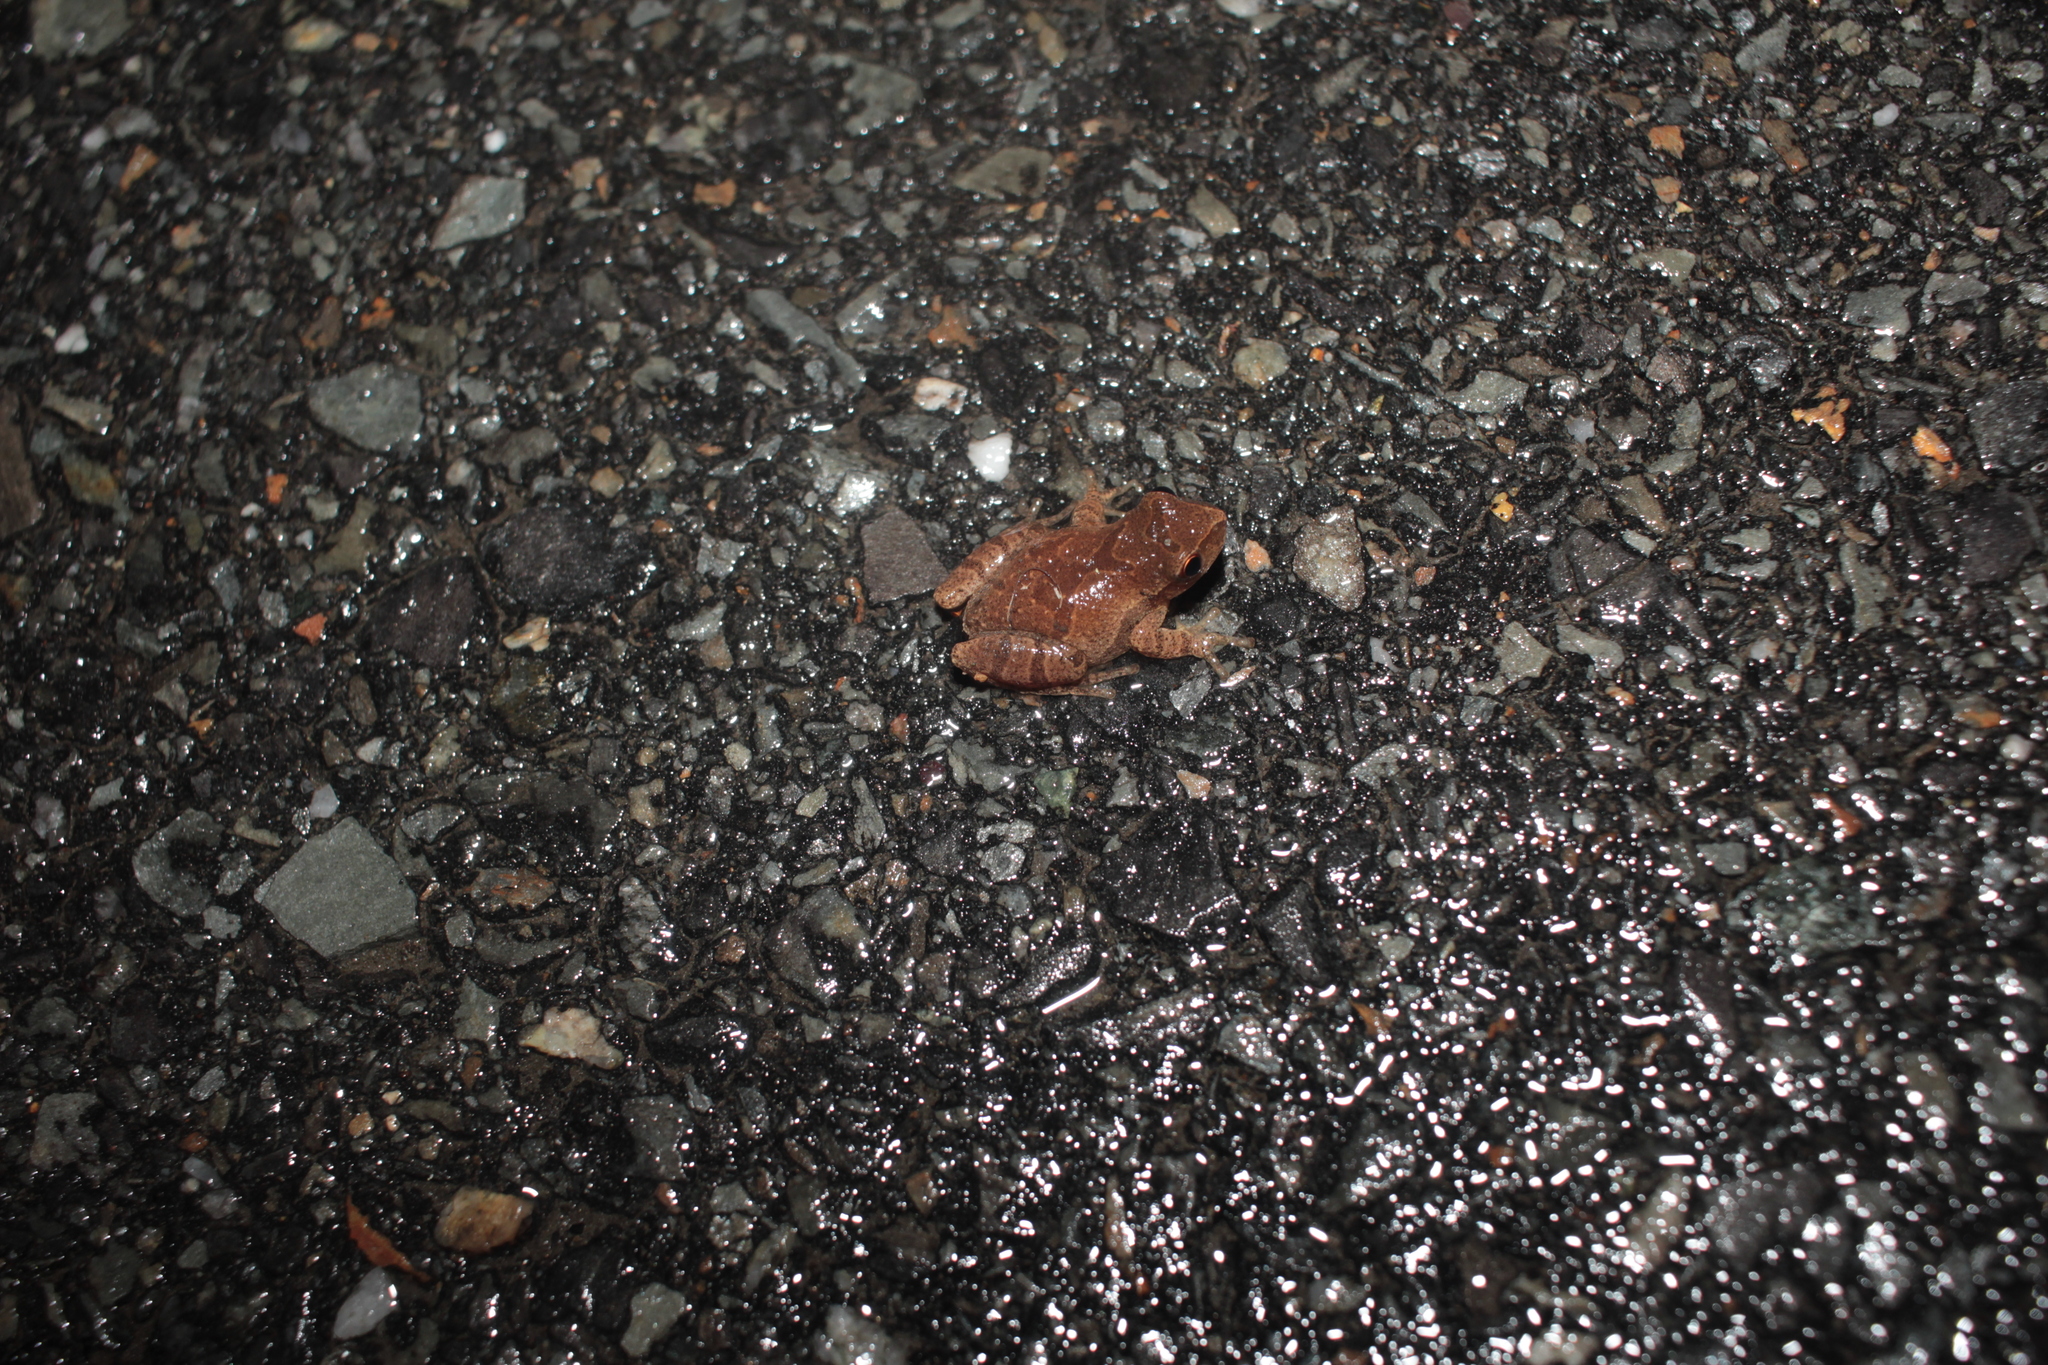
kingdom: Animalia
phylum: Chordata
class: Amphibia
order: Anura
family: Hylidae
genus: Pseudacris
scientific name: Pseudacris crucifer
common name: Spring peeper
